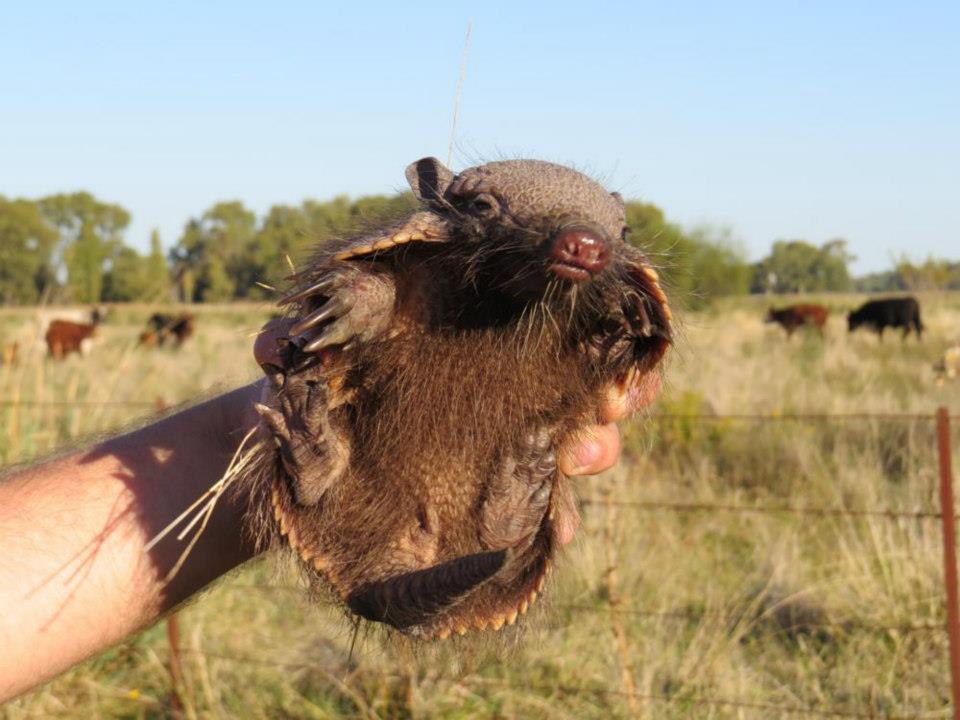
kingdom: Animalia
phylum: Chordata
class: Mammalia
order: Cingulata
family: Dasypodidae
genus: Chaetophractus
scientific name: Chaetophractus villosus
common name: Big hairy armadillo
